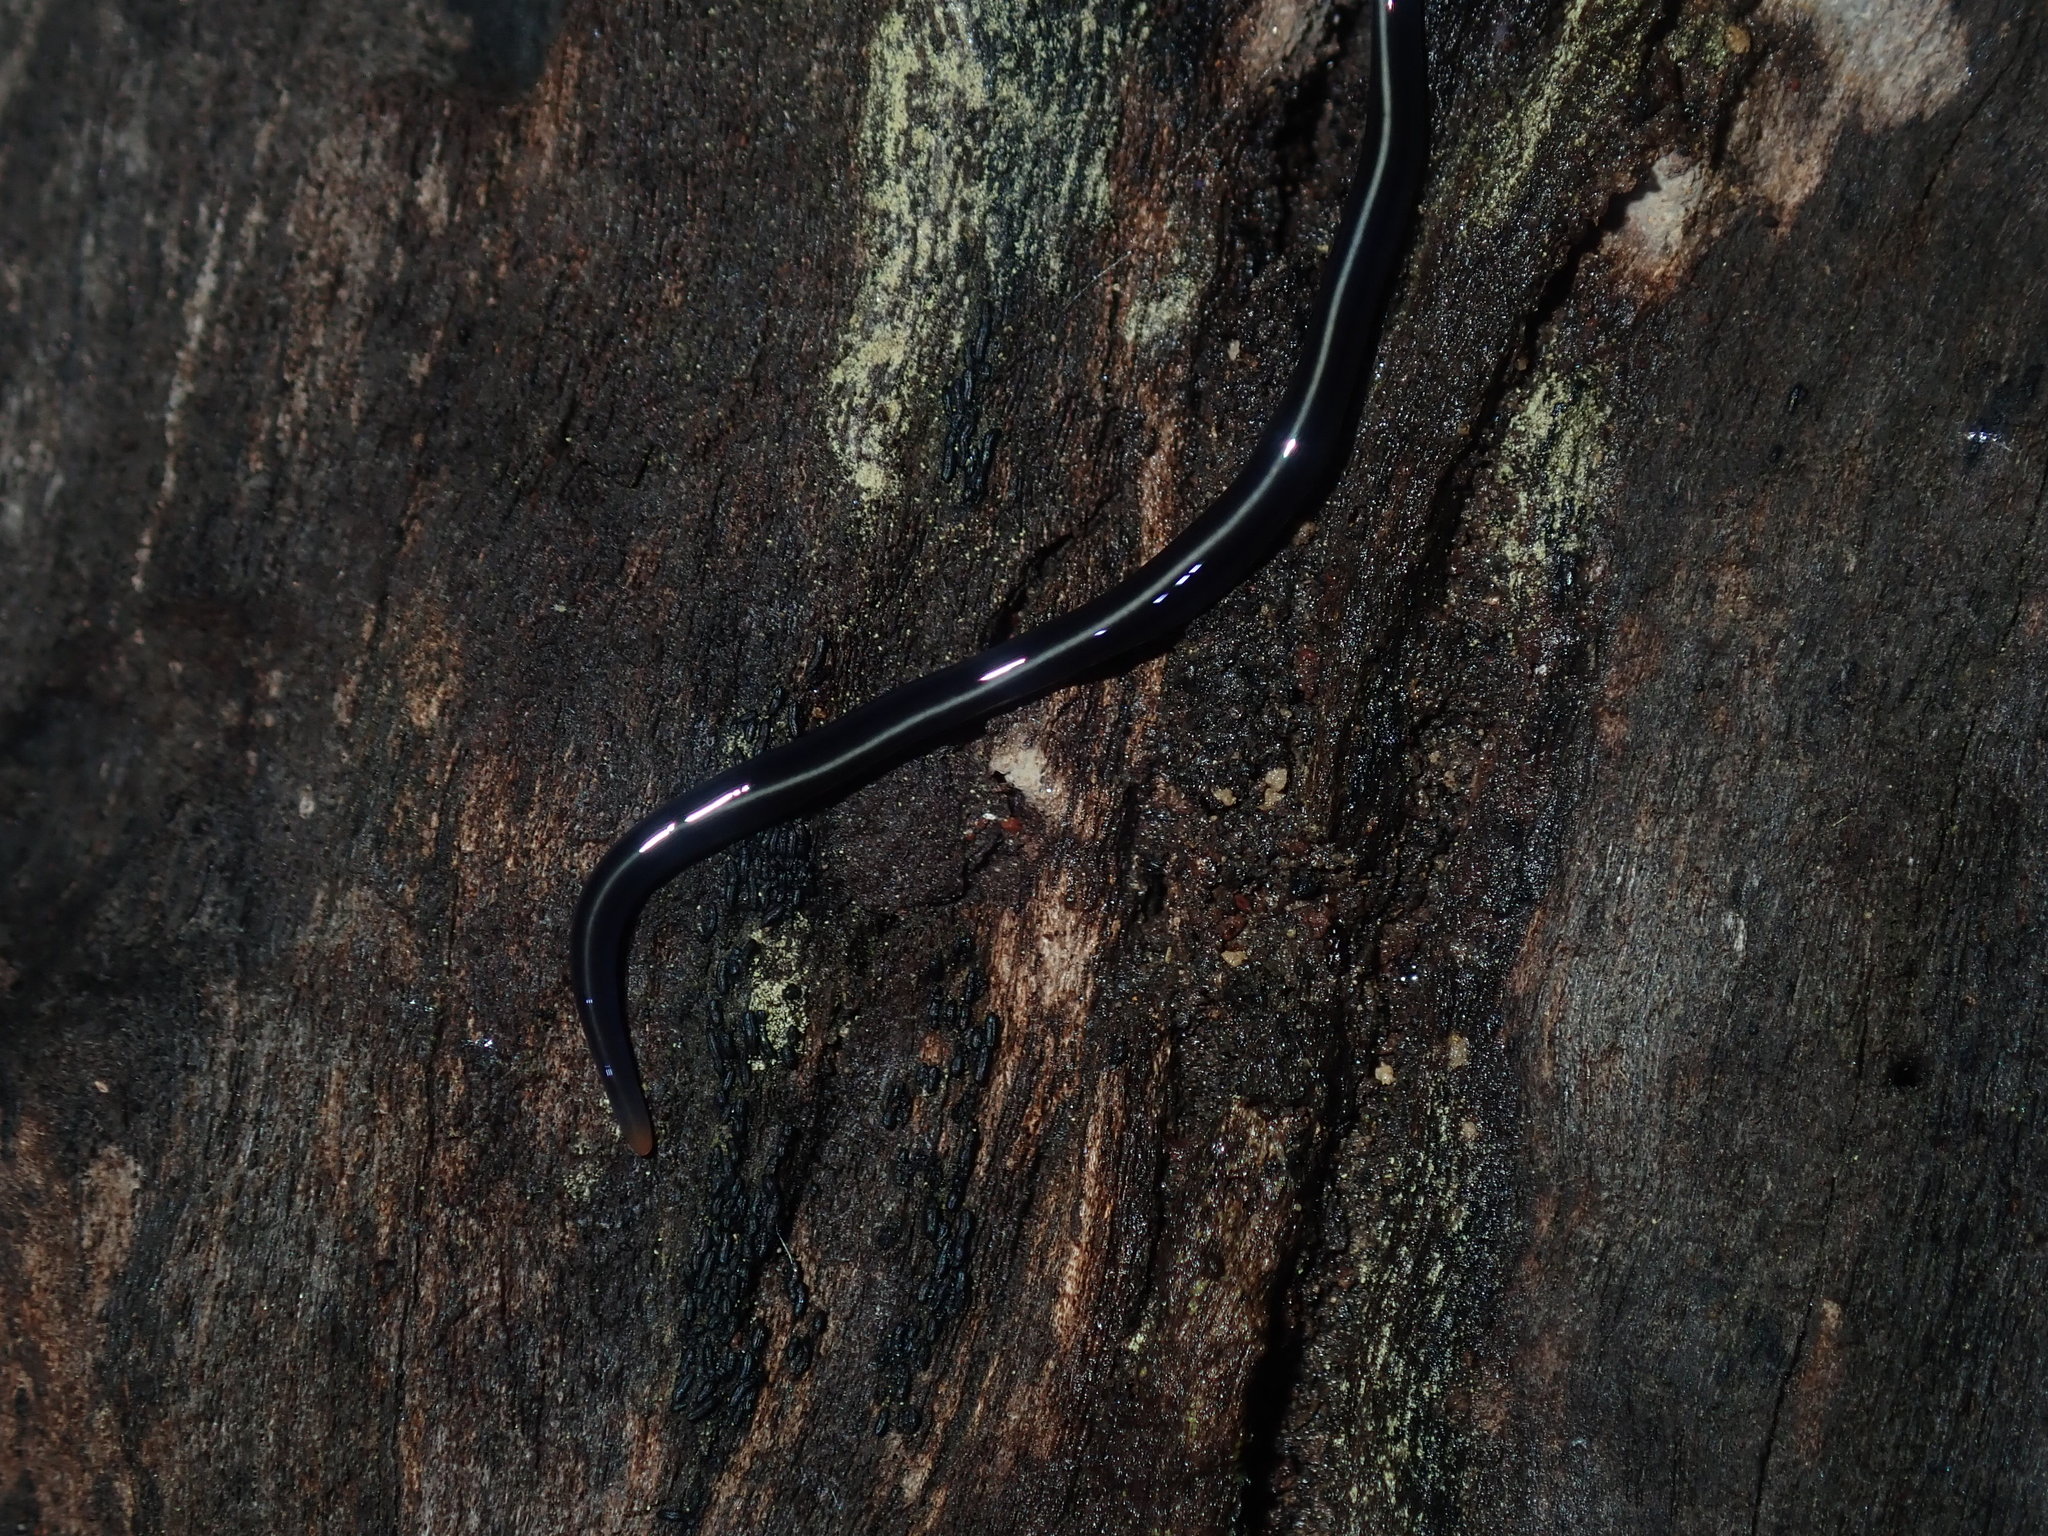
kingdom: Animalia
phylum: Platyhelminthes
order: Tricladida
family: Geoplanidae
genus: Caenoplana
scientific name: Caenoplana coerulea
